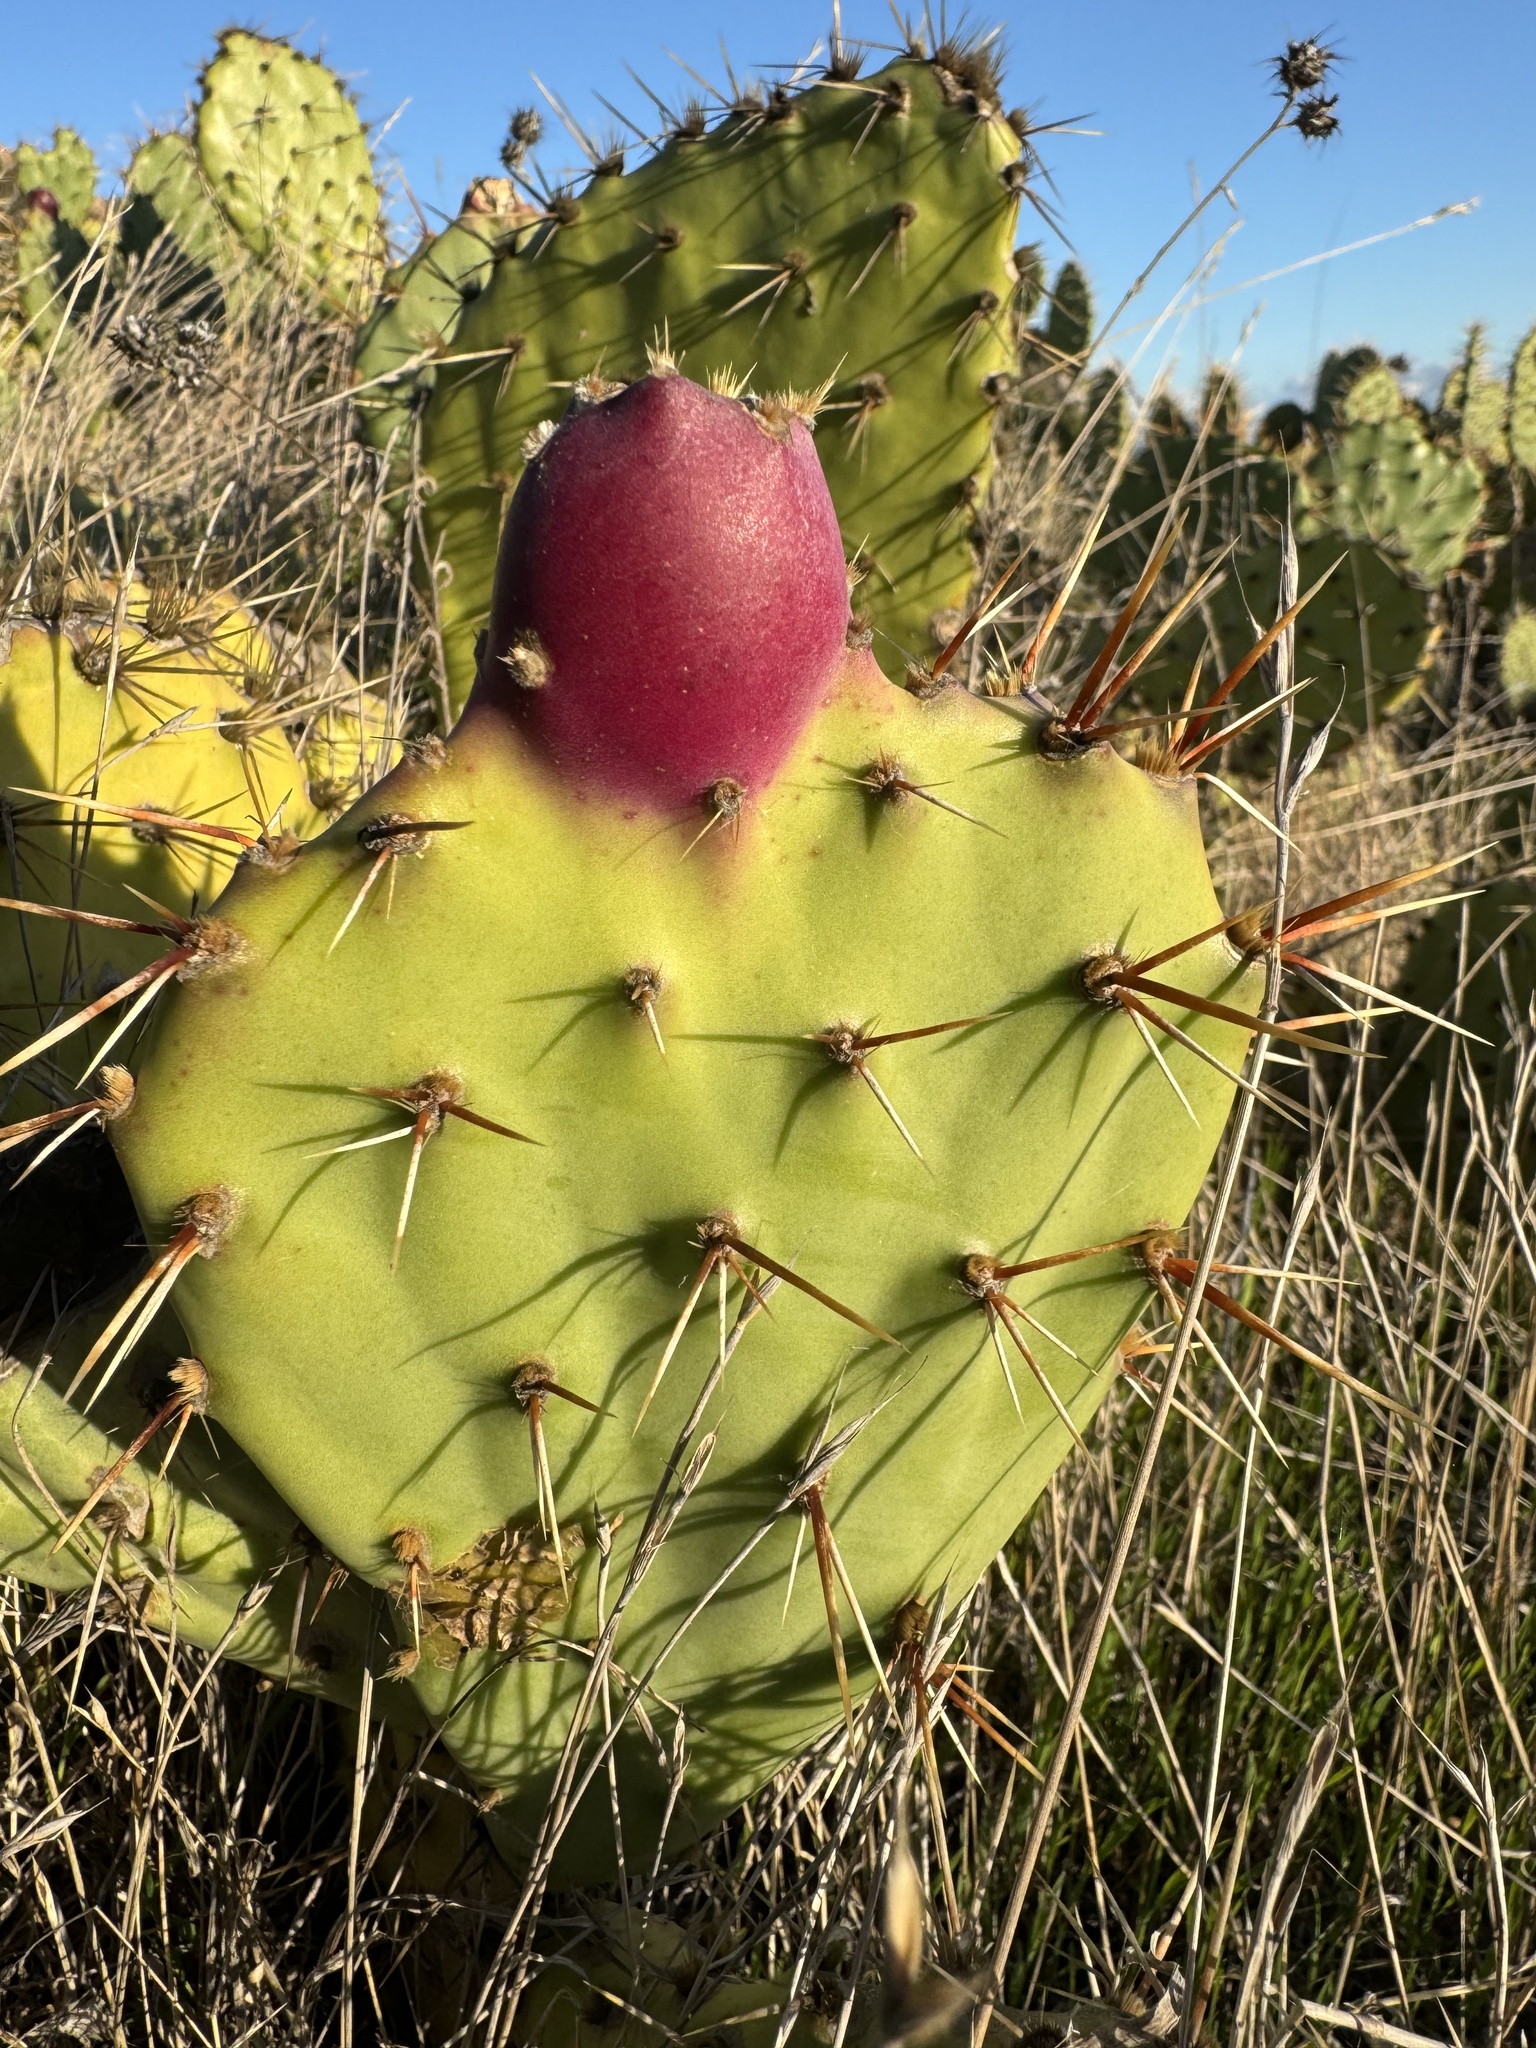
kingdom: Plantae
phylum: Tracheophyta
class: Magnoliopsida
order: Caryophyllales
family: Cactaceae
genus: Opuntia
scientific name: Opuntia littoralis
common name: Coastal prickly-pear
